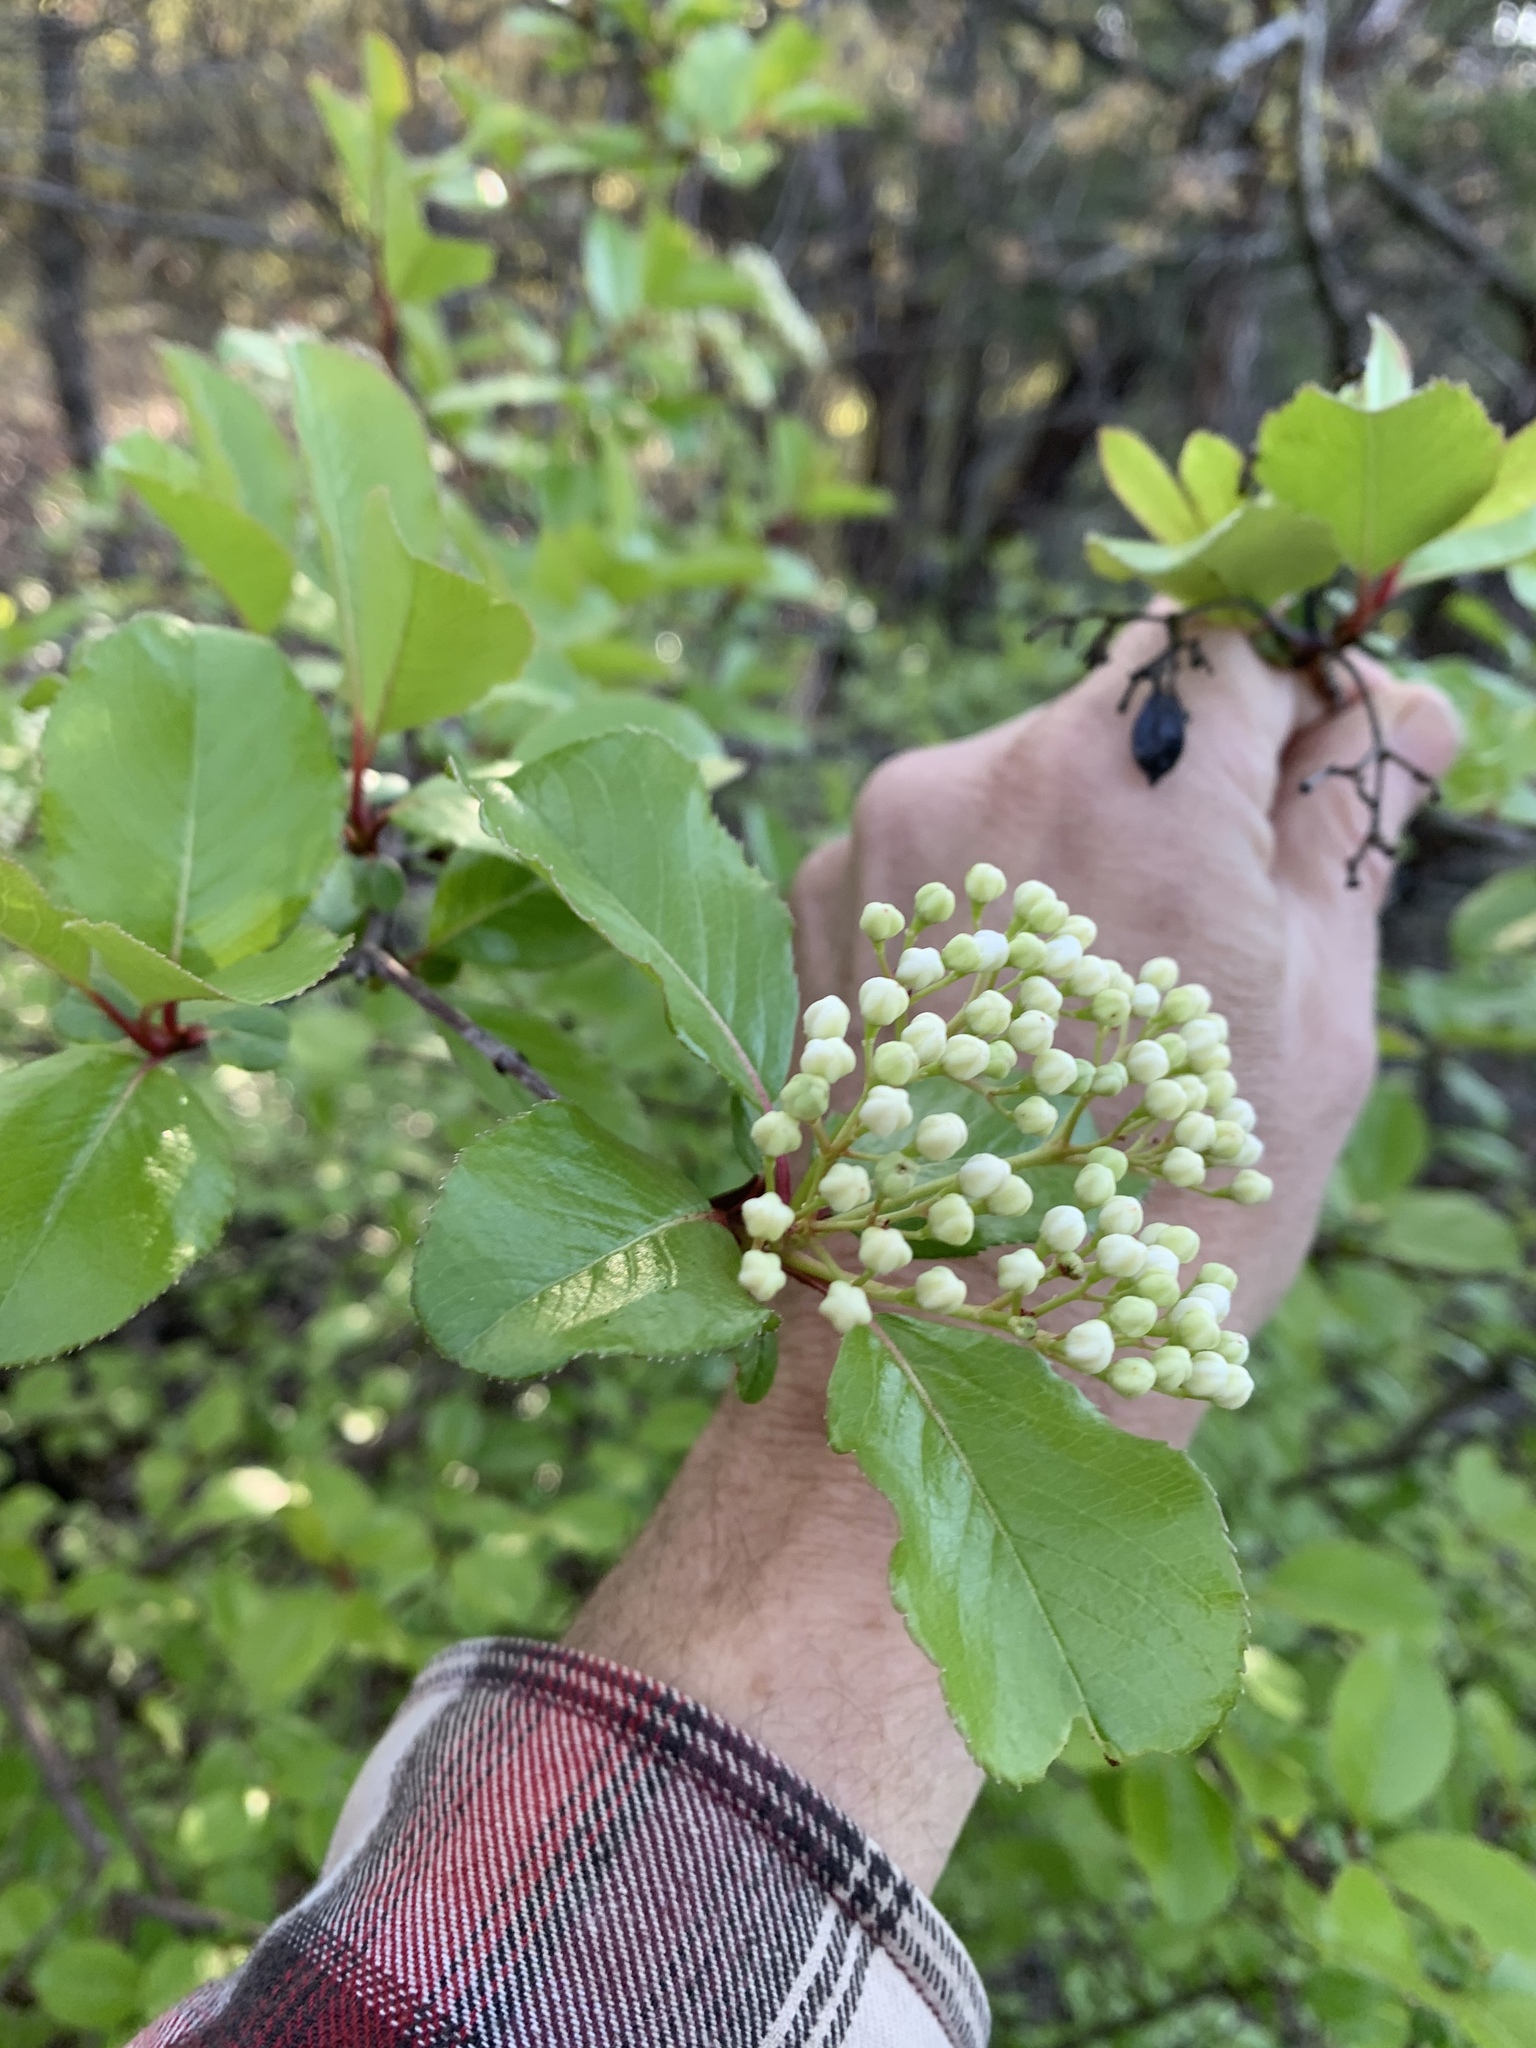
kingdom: Plantae
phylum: Tracheophyta
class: Magnoliopsida
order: Dipsacales
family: Viburnaceae
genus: Viburnum
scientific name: Viburnum rufidulum
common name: Blue haw
